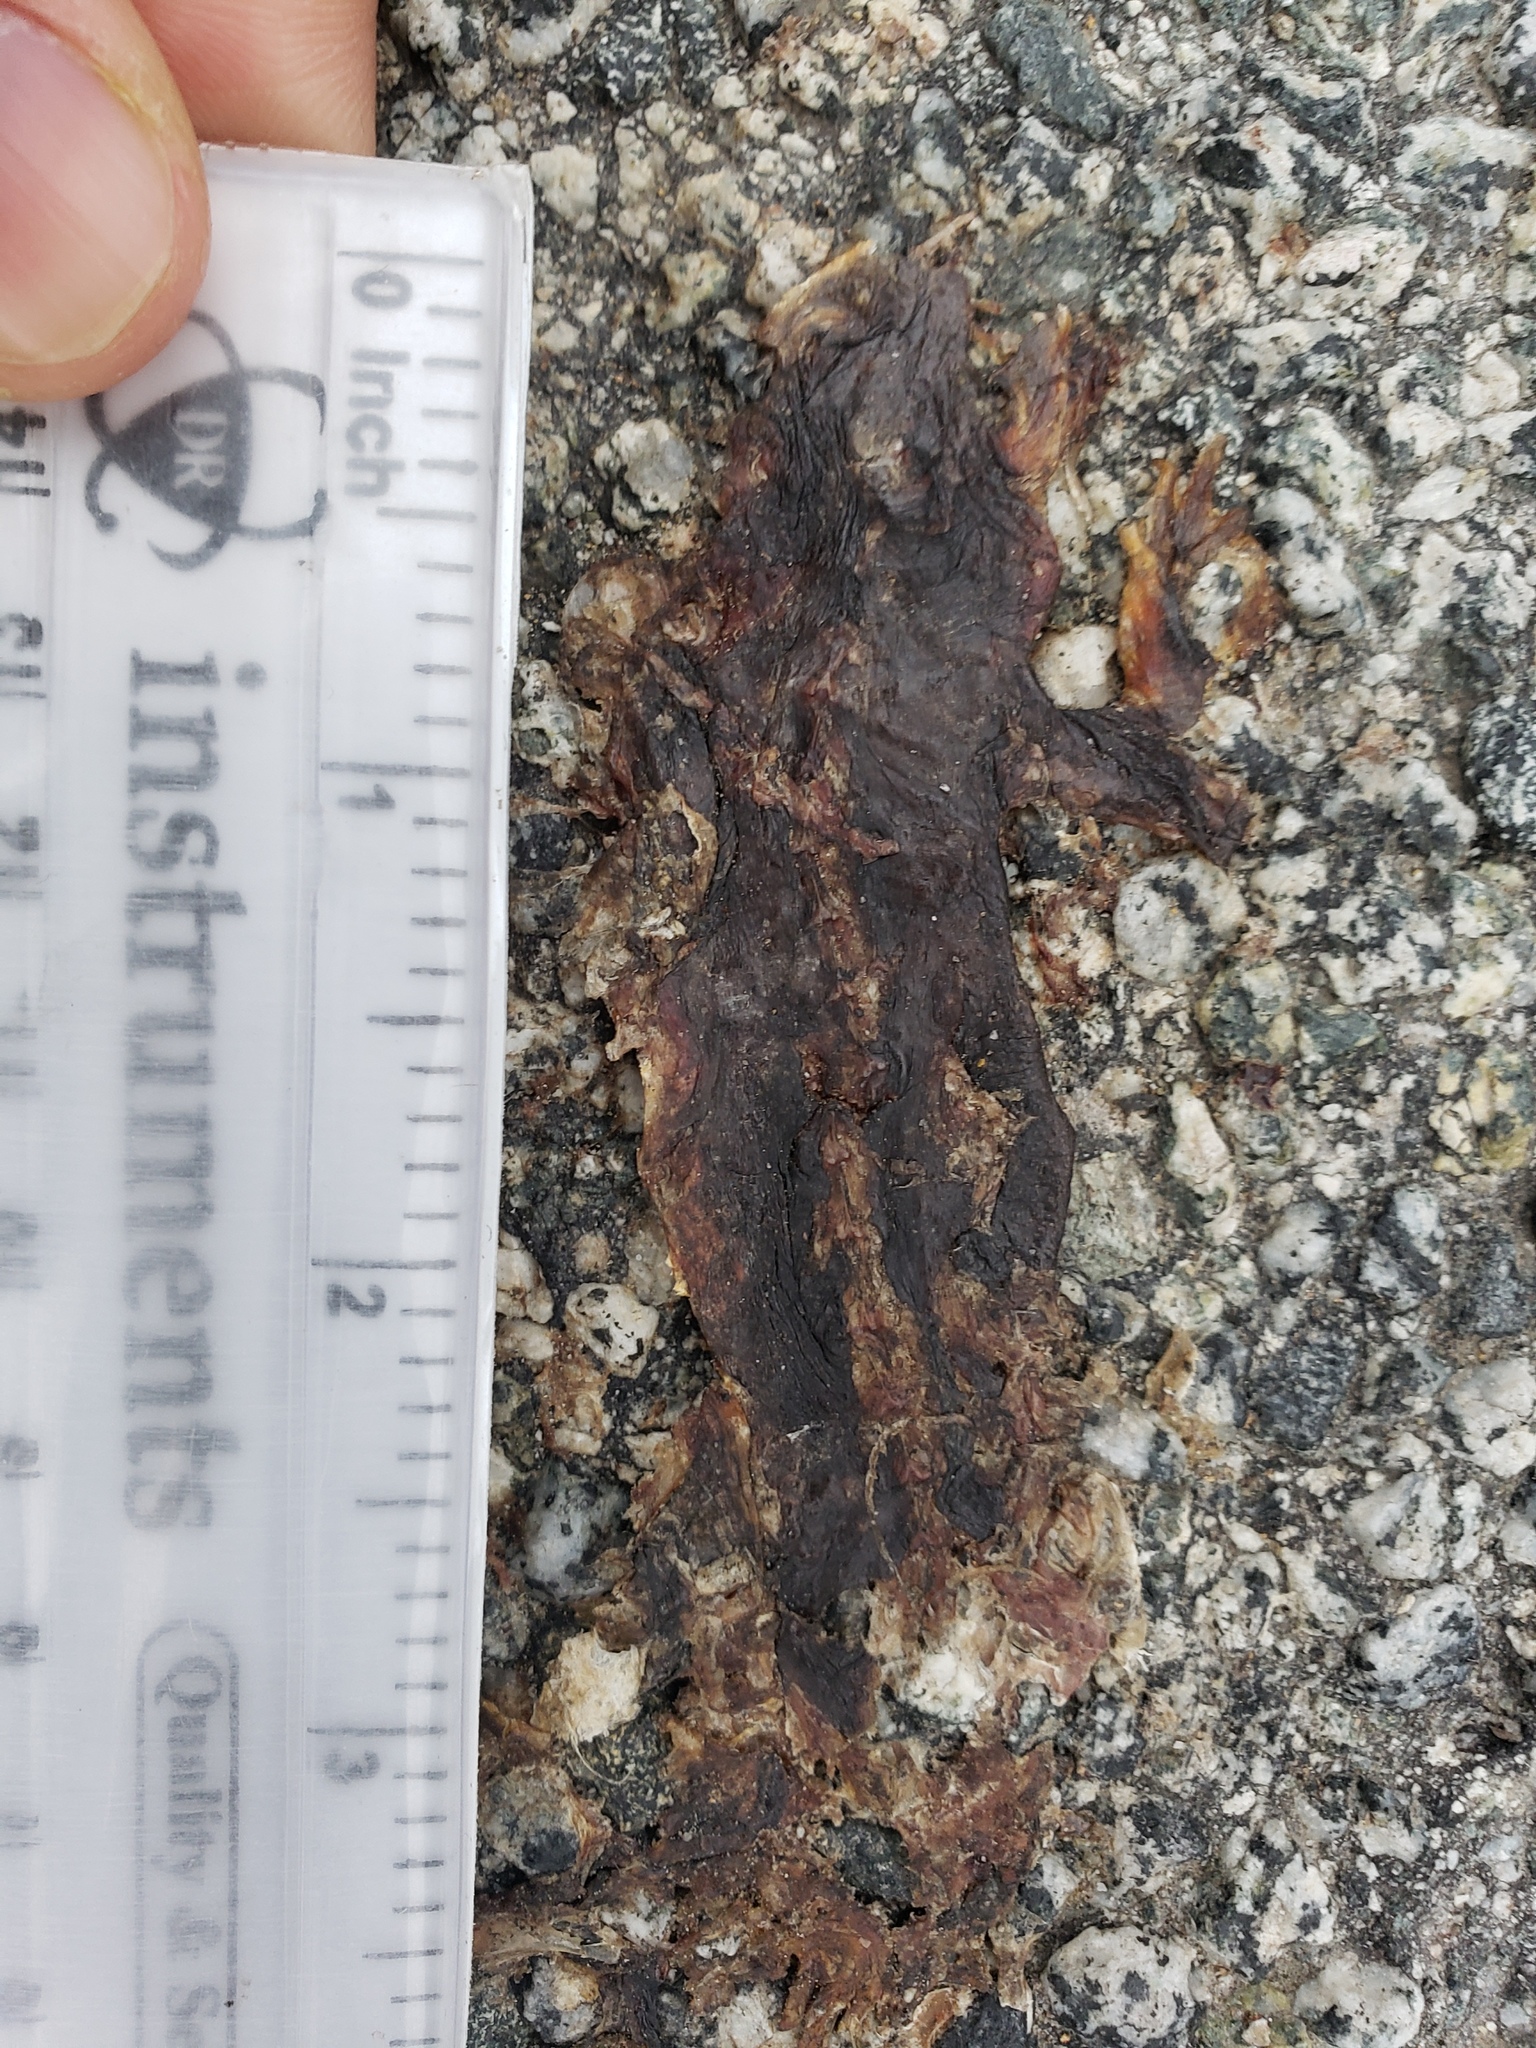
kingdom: Animalia
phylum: Chordata
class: Amphibia
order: Caudata
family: Salamandridae
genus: Taricha
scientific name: Taricha
